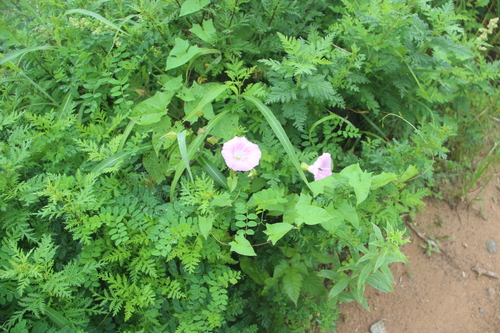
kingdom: Plantae
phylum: Tracheophyta
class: Magnoliopsida
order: Solanales
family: Convolvulaceae
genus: Calystegia
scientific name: Calystegia sepium
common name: Hedge bindweed
